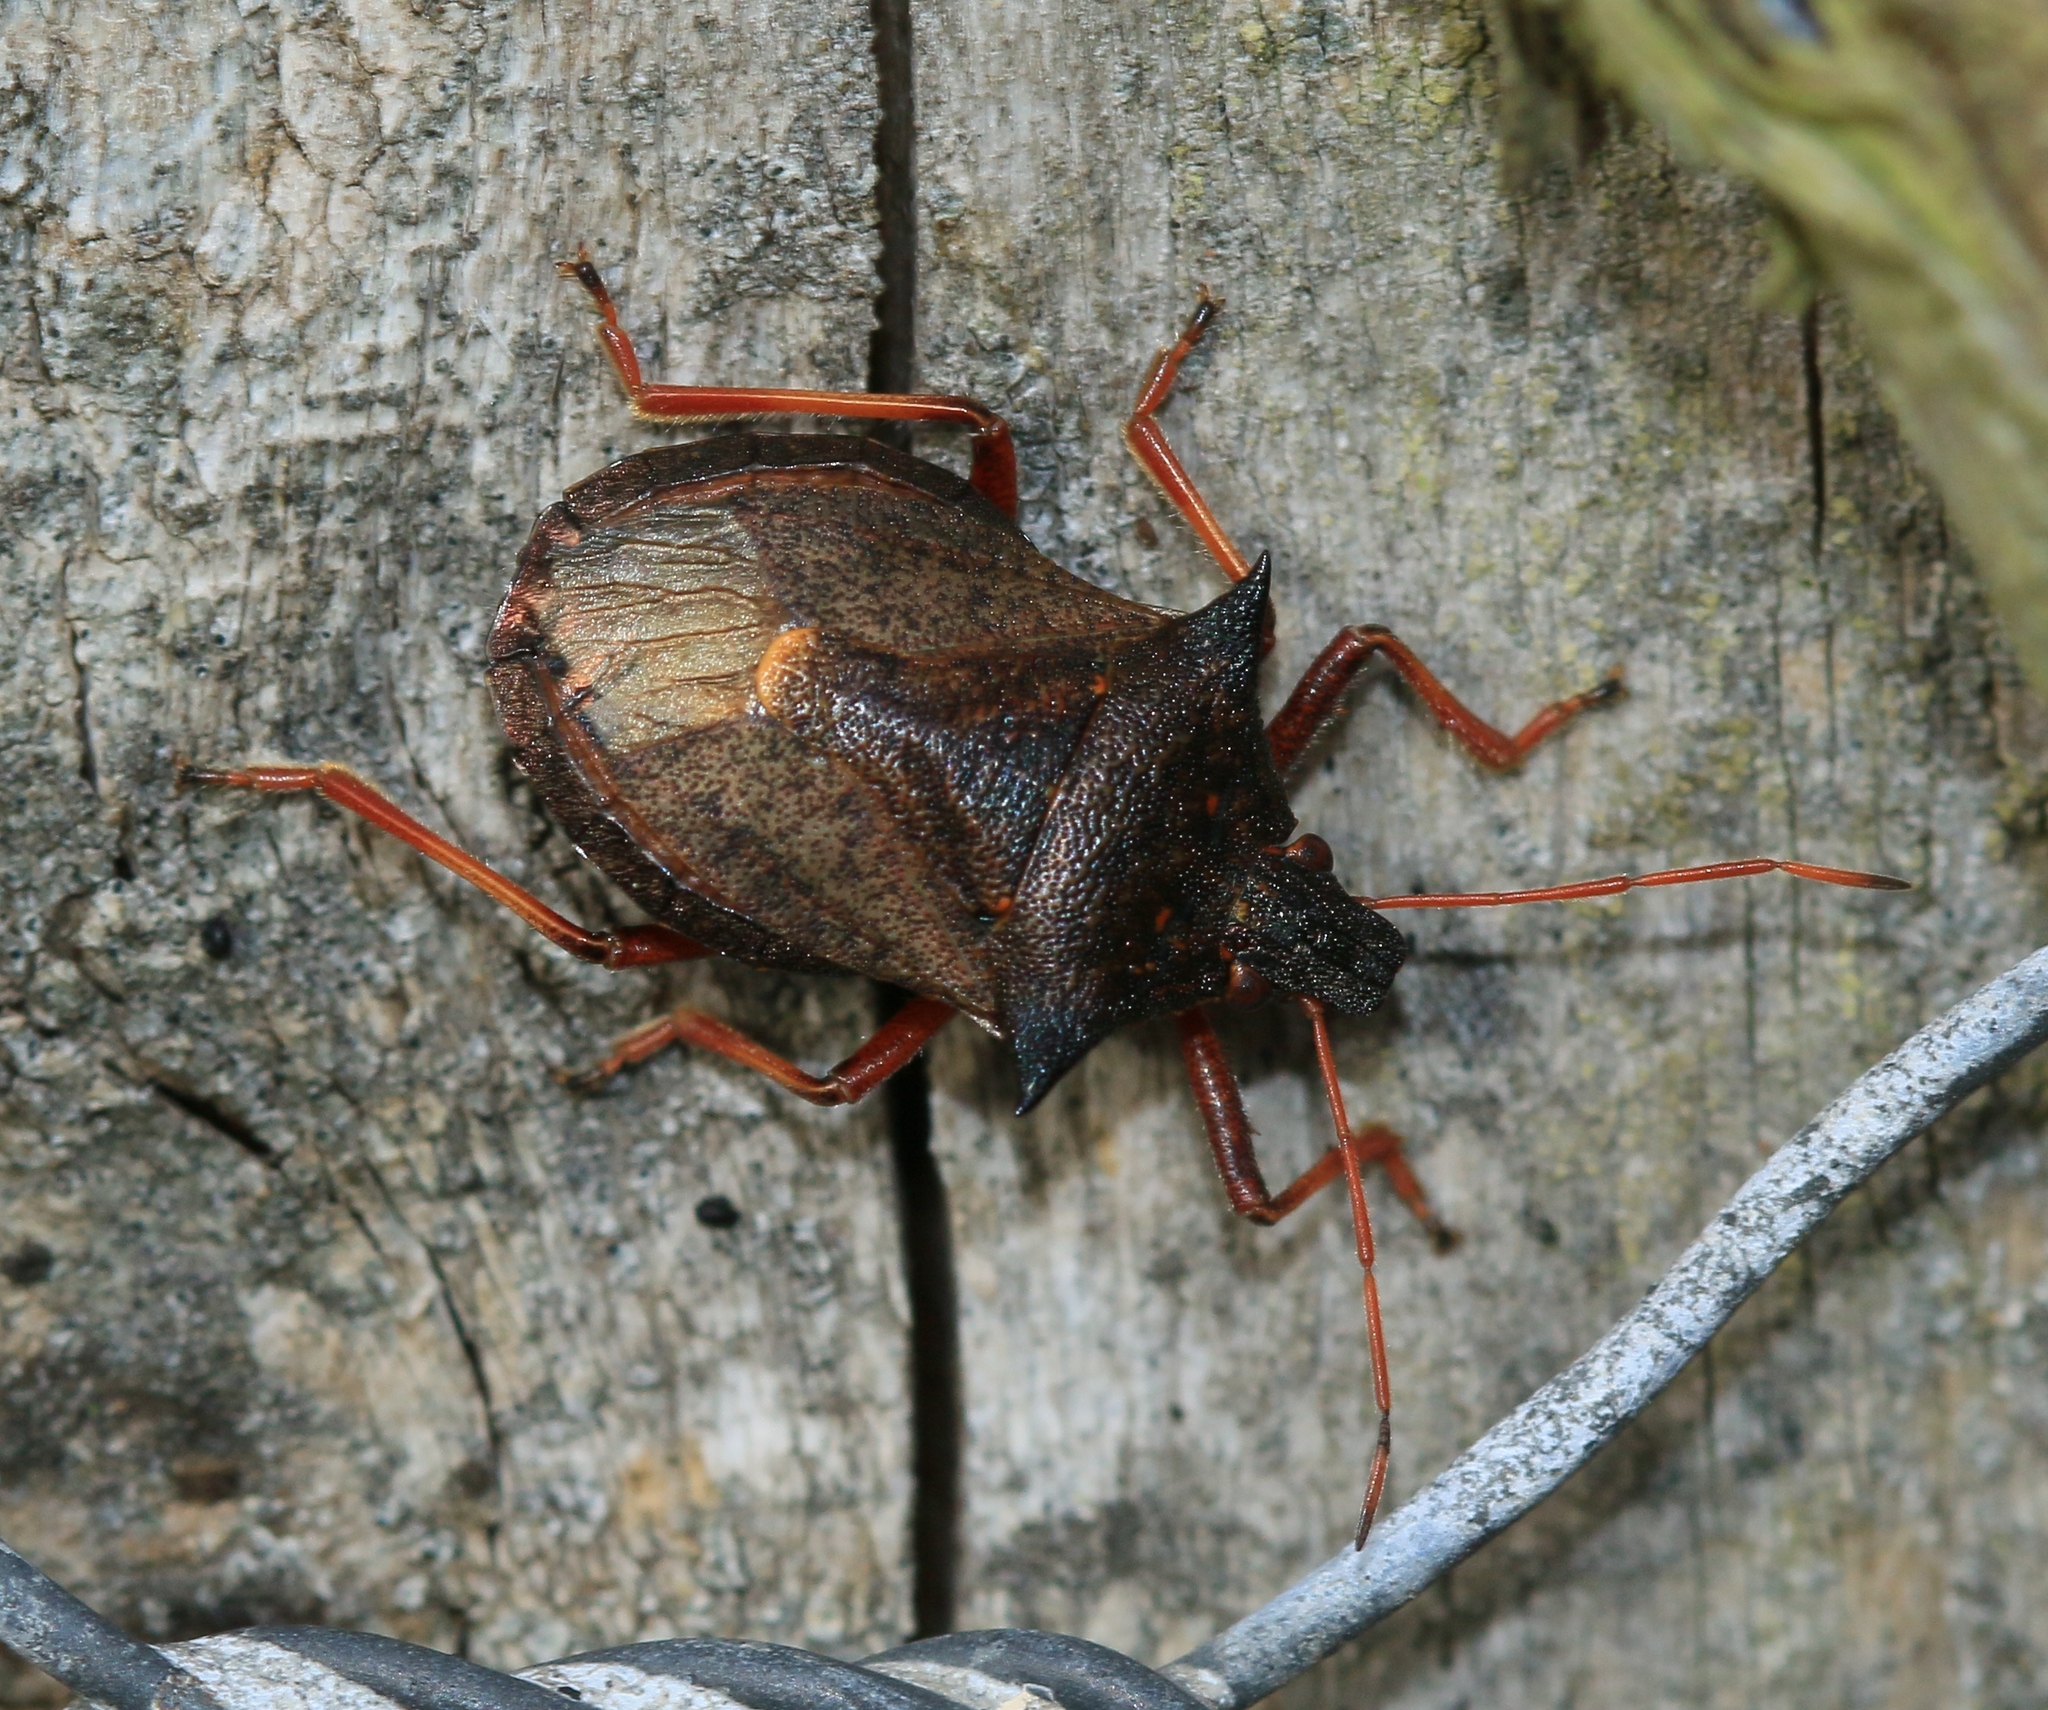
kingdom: Animalia
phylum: Arthropoda
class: Insecta
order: Hemiptera
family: Pentatomidae
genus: Picromerus
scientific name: Picromerus bidens
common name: Spiked shieldbug
